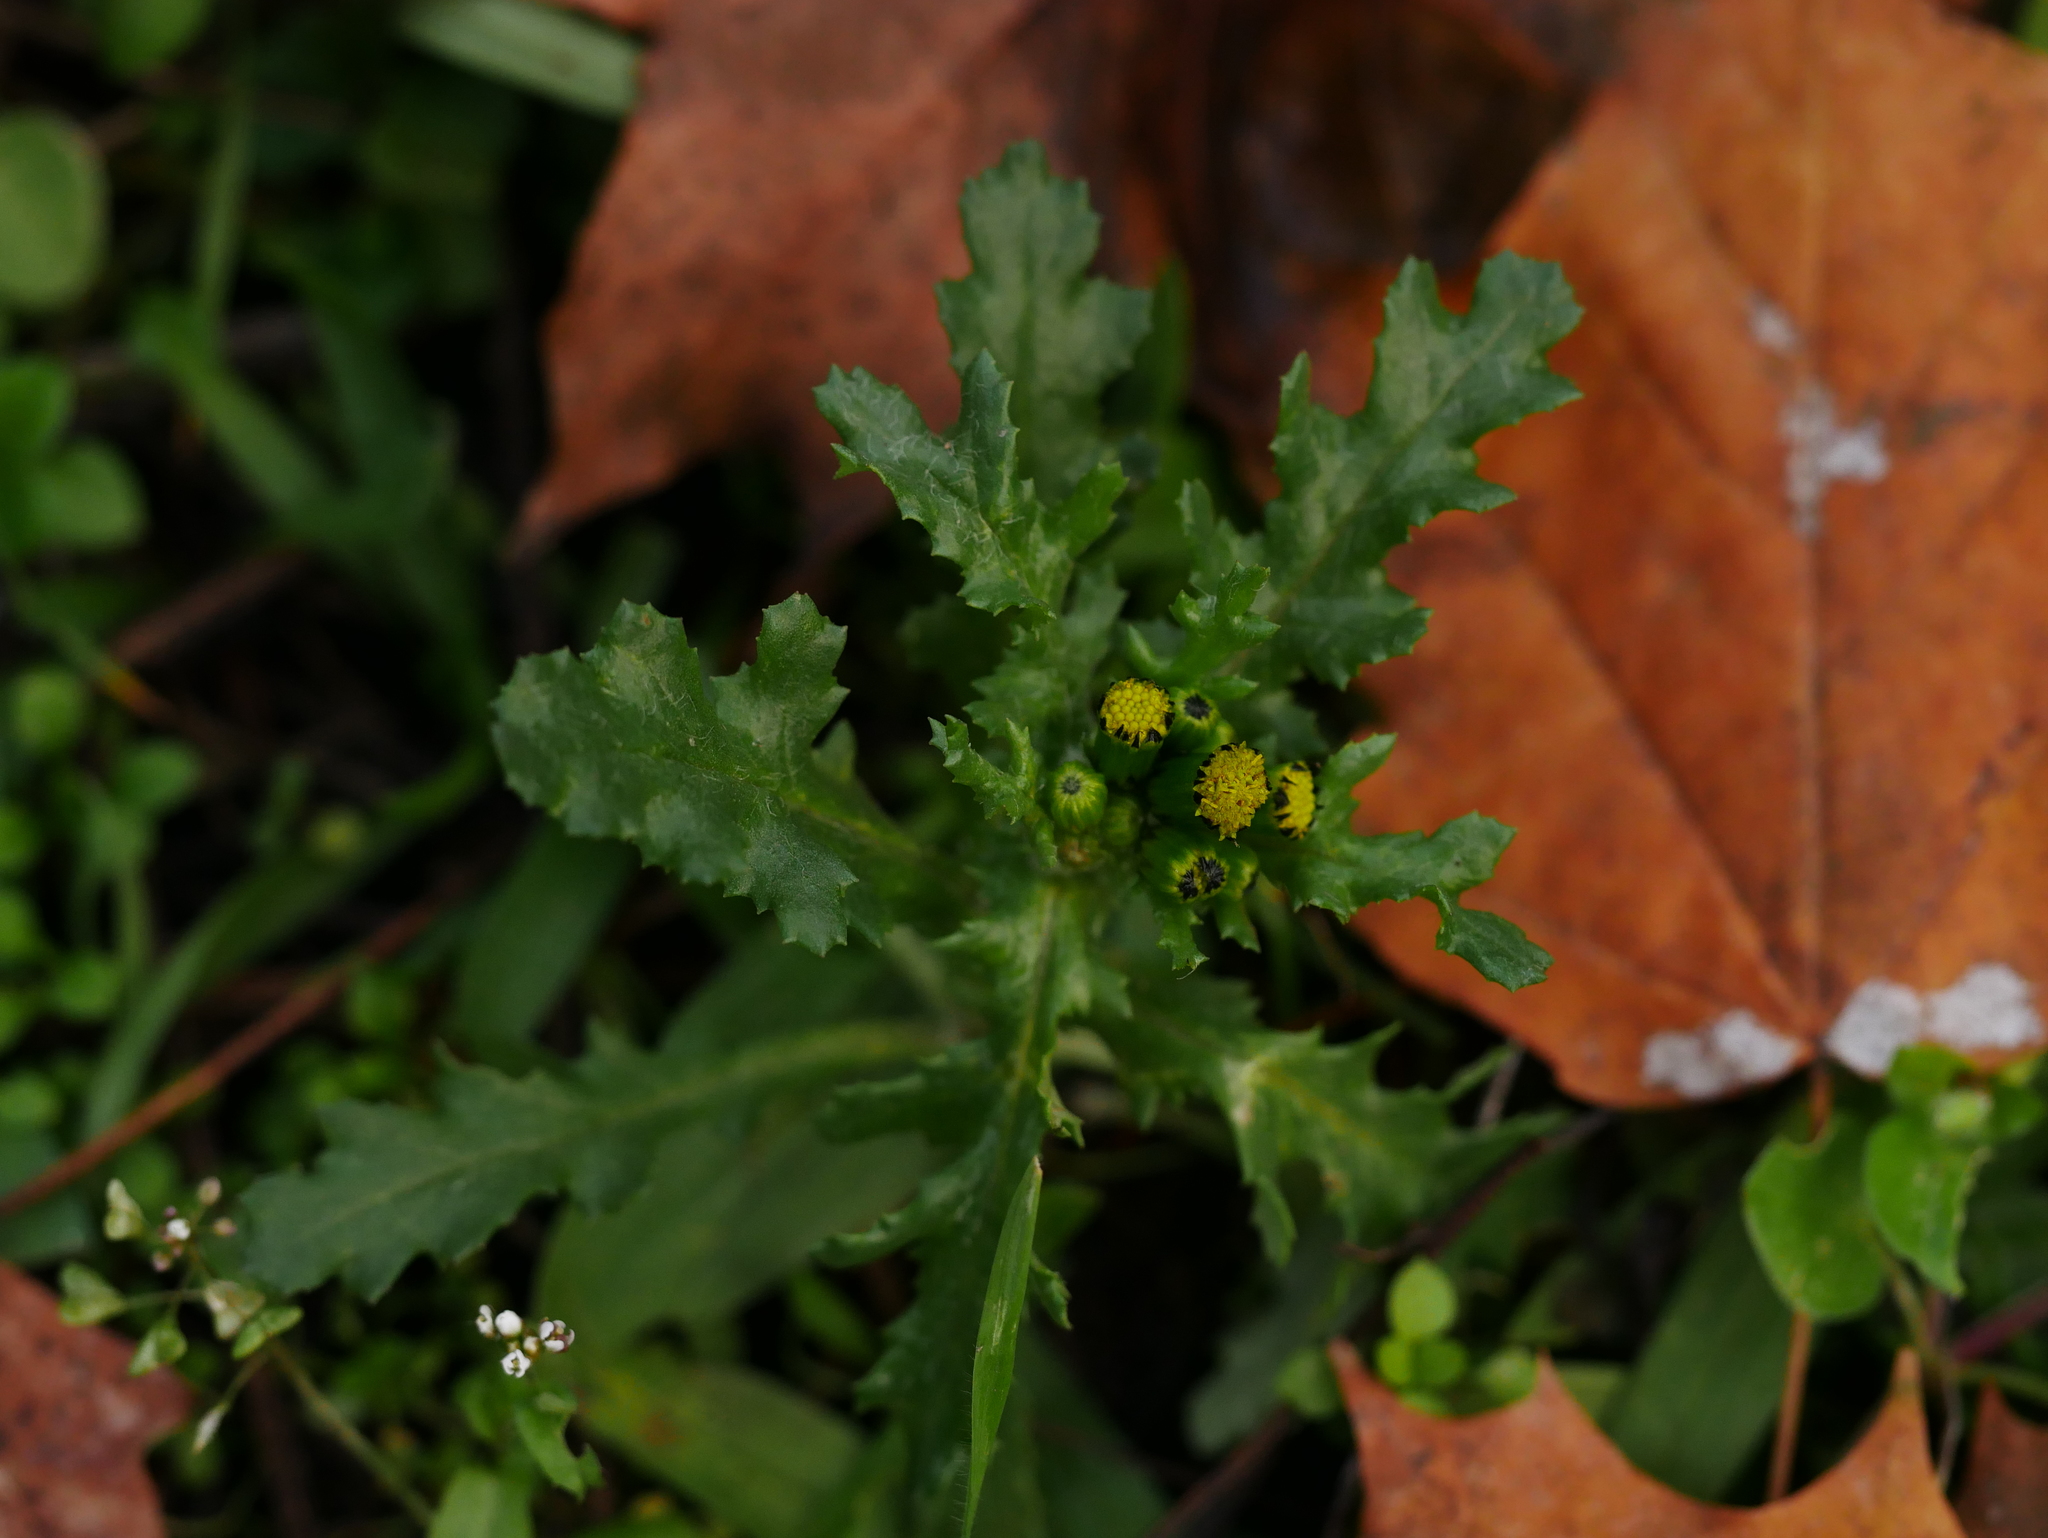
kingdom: Plantae
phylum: Tracheophyta
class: Magnoliopsida
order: Asterales
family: Asteraceae
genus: Senecio
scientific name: Senecio vulgaris
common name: Old-man-in-the-spring
